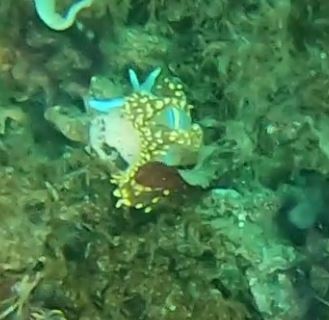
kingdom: Animalia
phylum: Mollusca
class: Gastropoda
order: Nudibranchia
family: Myrrhinidae
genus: Hermissenda
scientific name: Hermissenda opalescens
